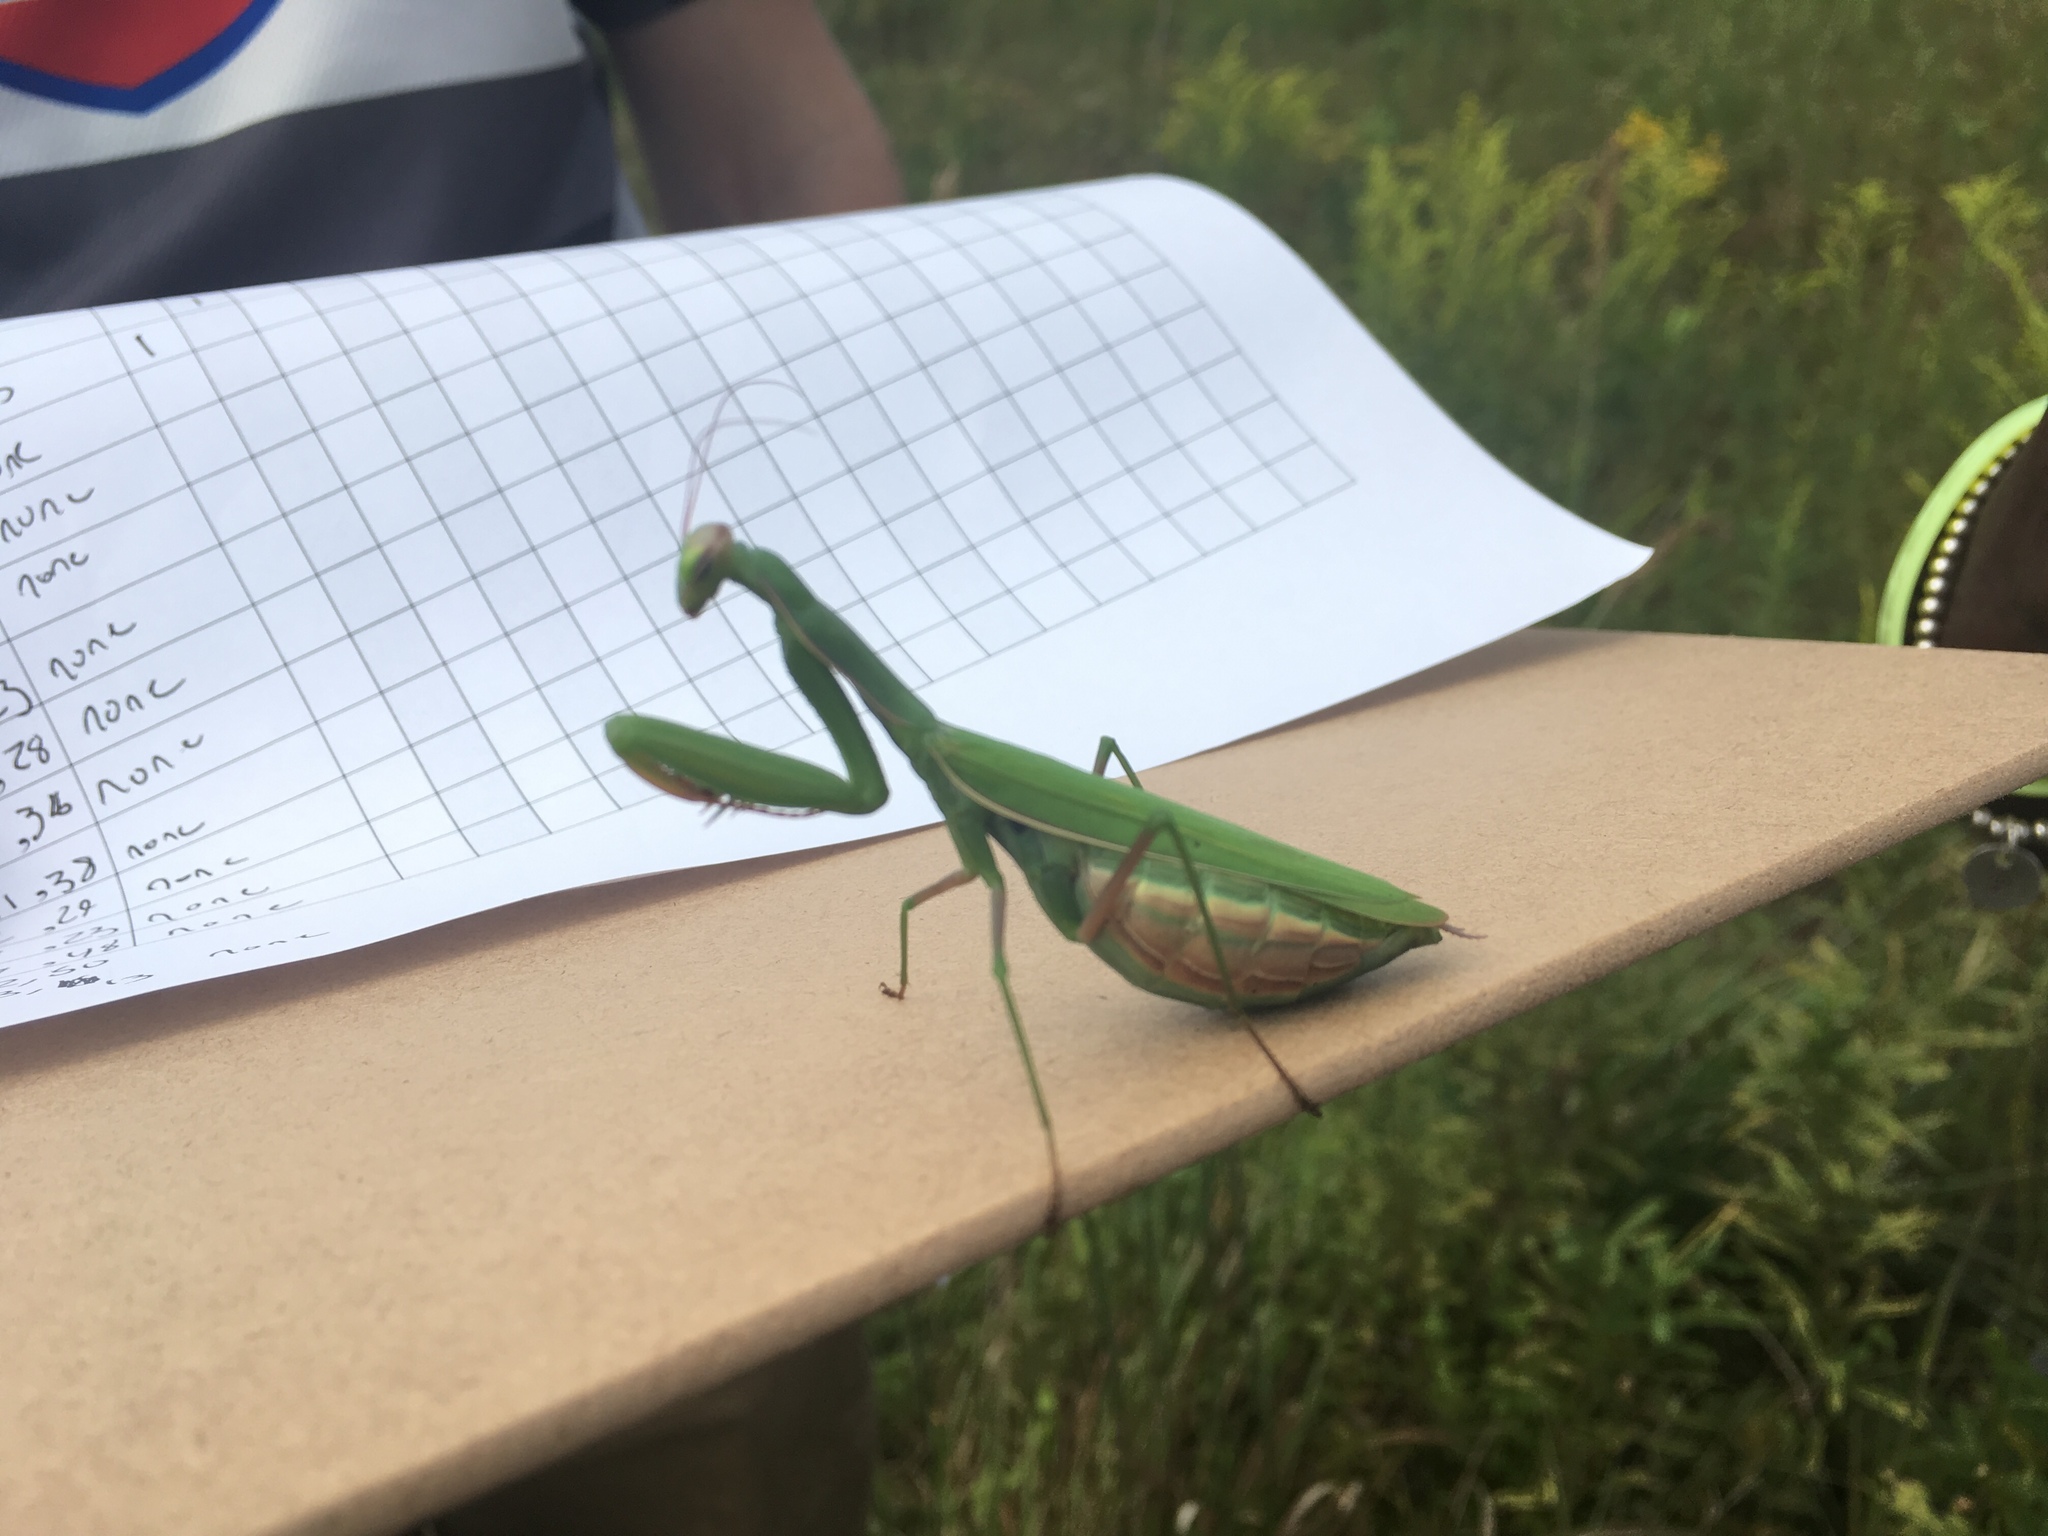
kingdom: Animalia
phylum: Arthropoda
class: Insecta
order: Mantodea
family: Mantidae
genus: Mantis
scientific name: Mantis religiosa
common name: Praying mantis
